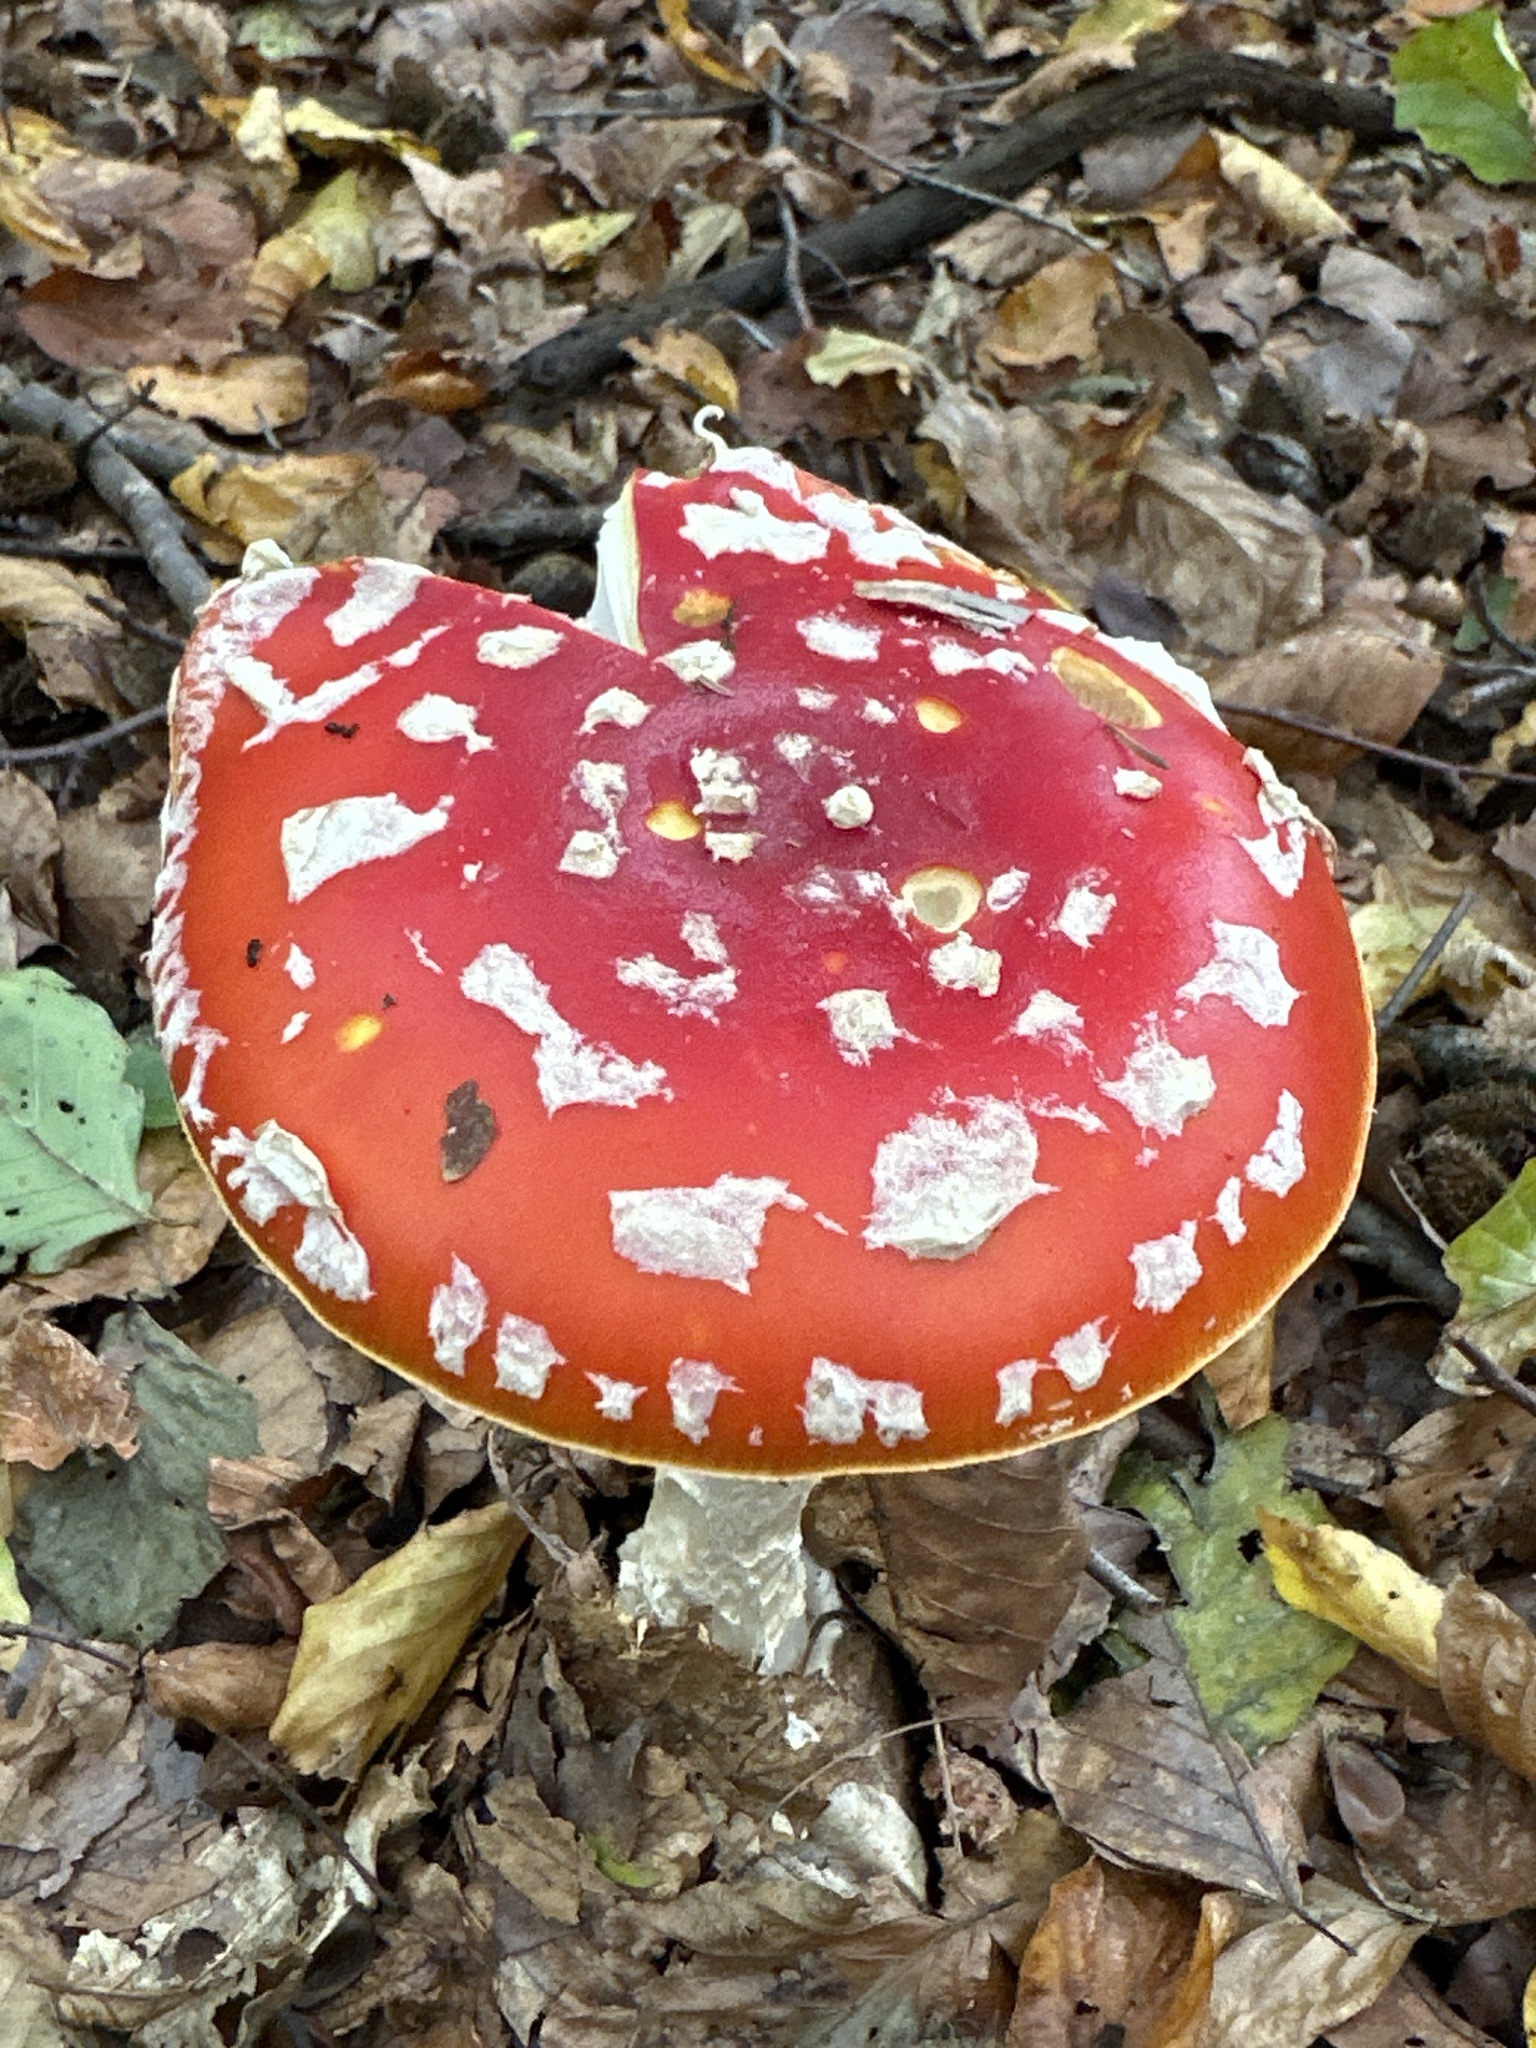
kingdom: Fungi
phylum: Basidiomycota
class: Agaricomycetes
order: Agaricales
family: Amanitaceae
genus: Amanita
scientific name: Amanita muscaria
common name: Fly agaric
